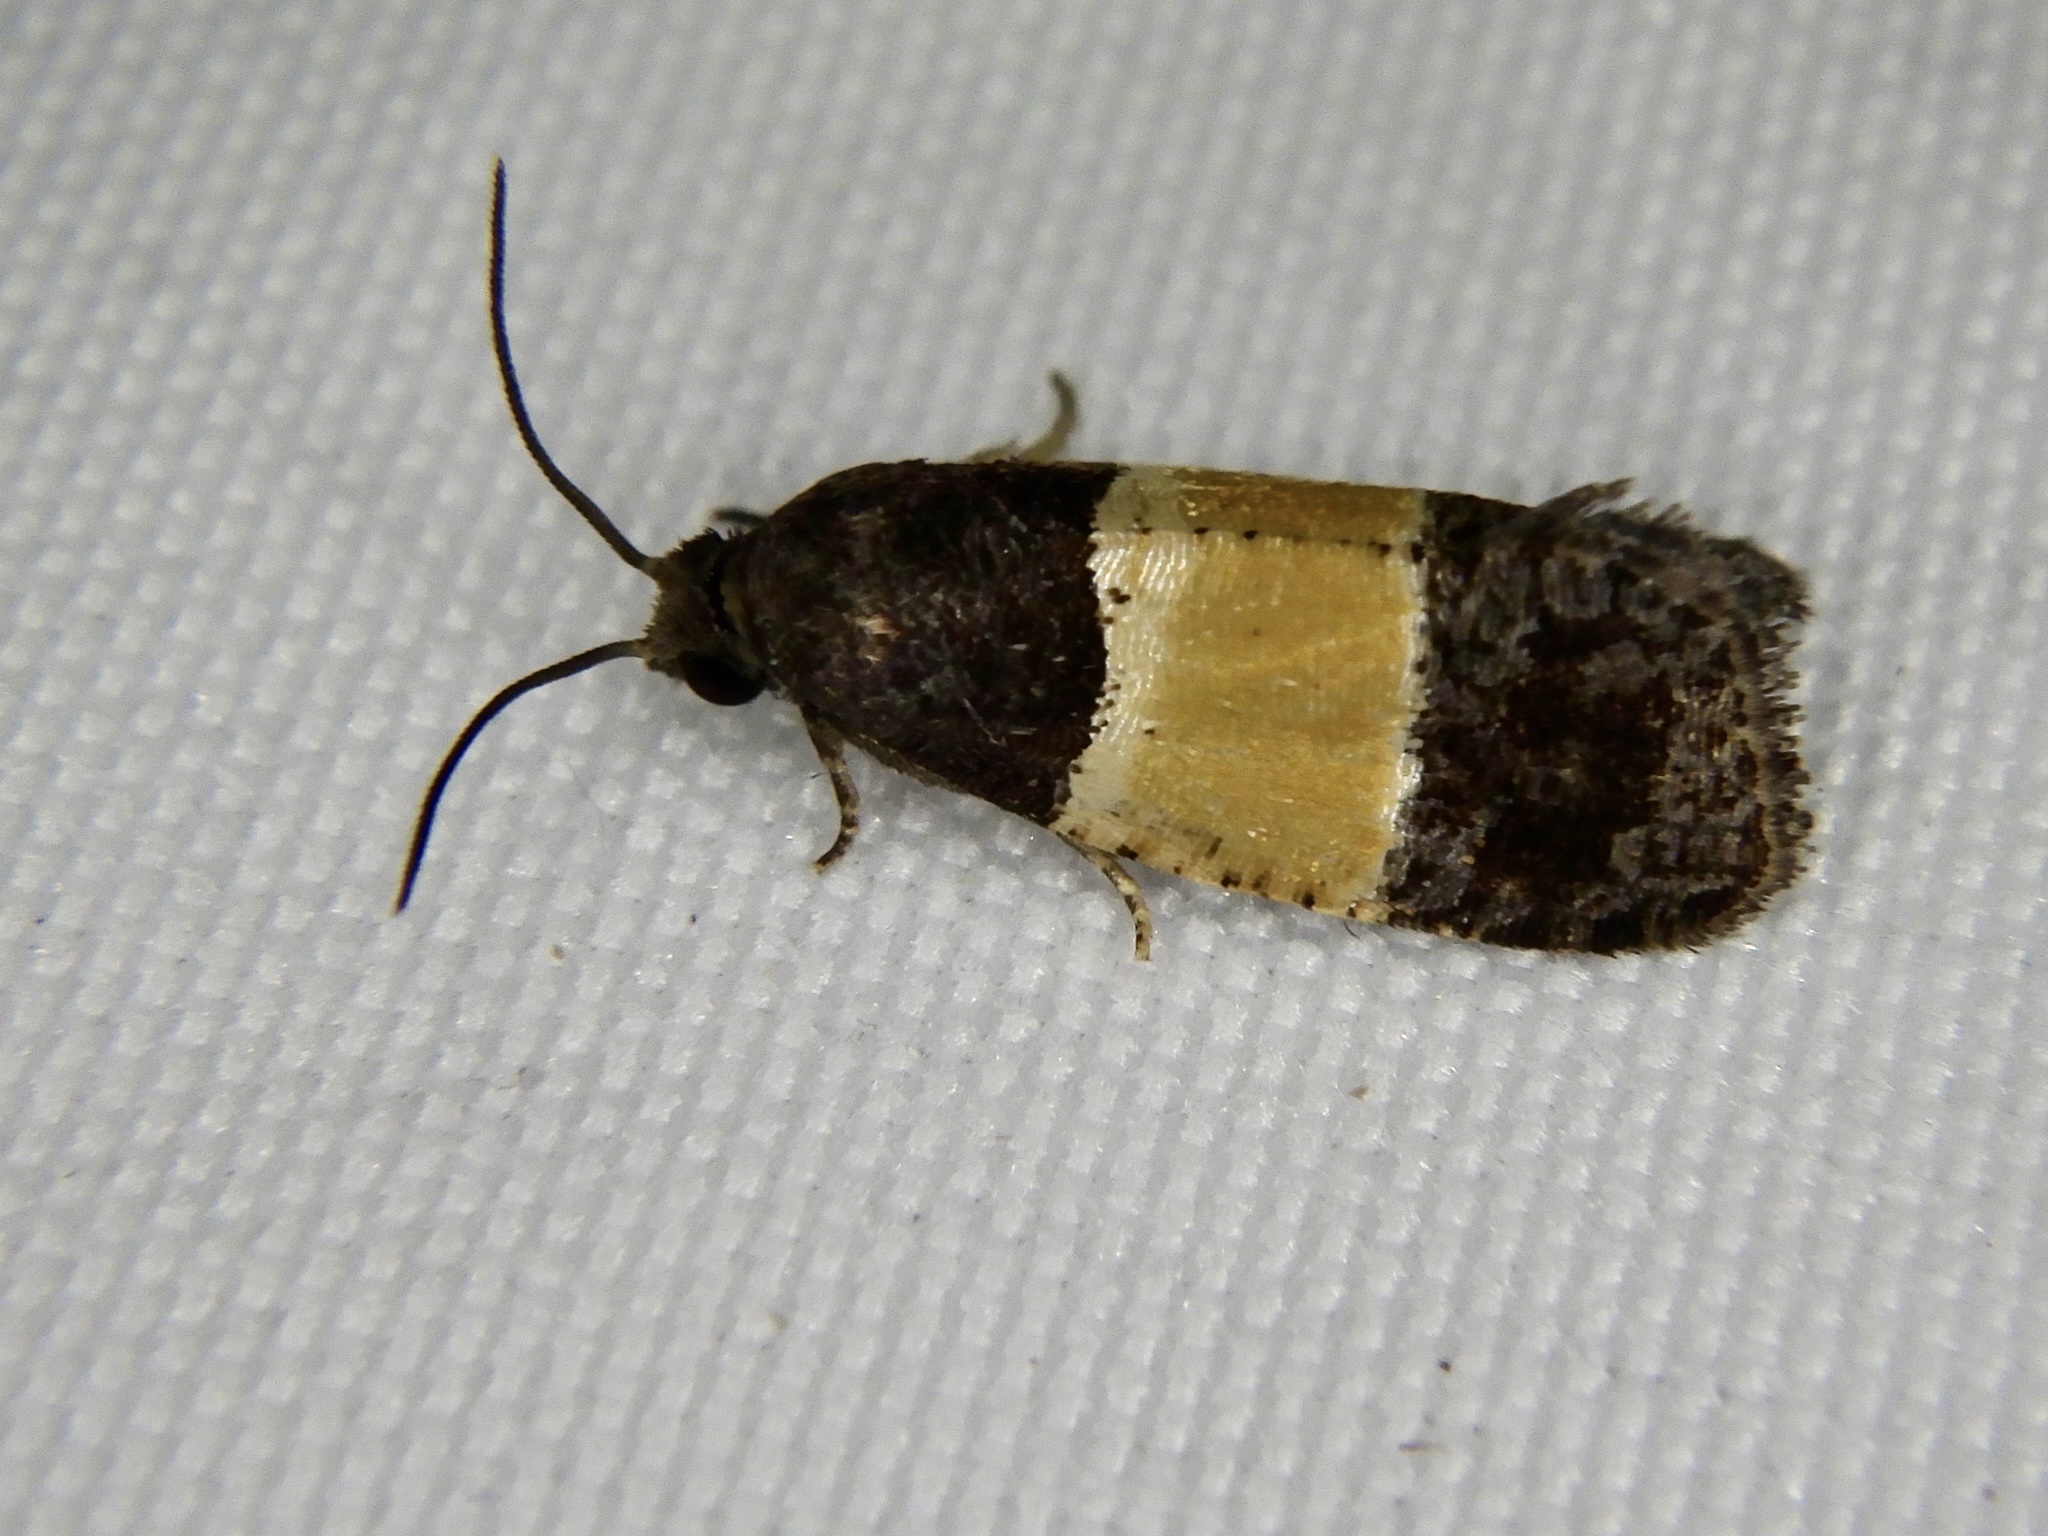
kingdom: Animalia
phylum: Arthropoda
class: Insecta
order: Lepidoptera
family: Tortricidae
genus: Epinotia
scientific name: Epinotia bicolor
